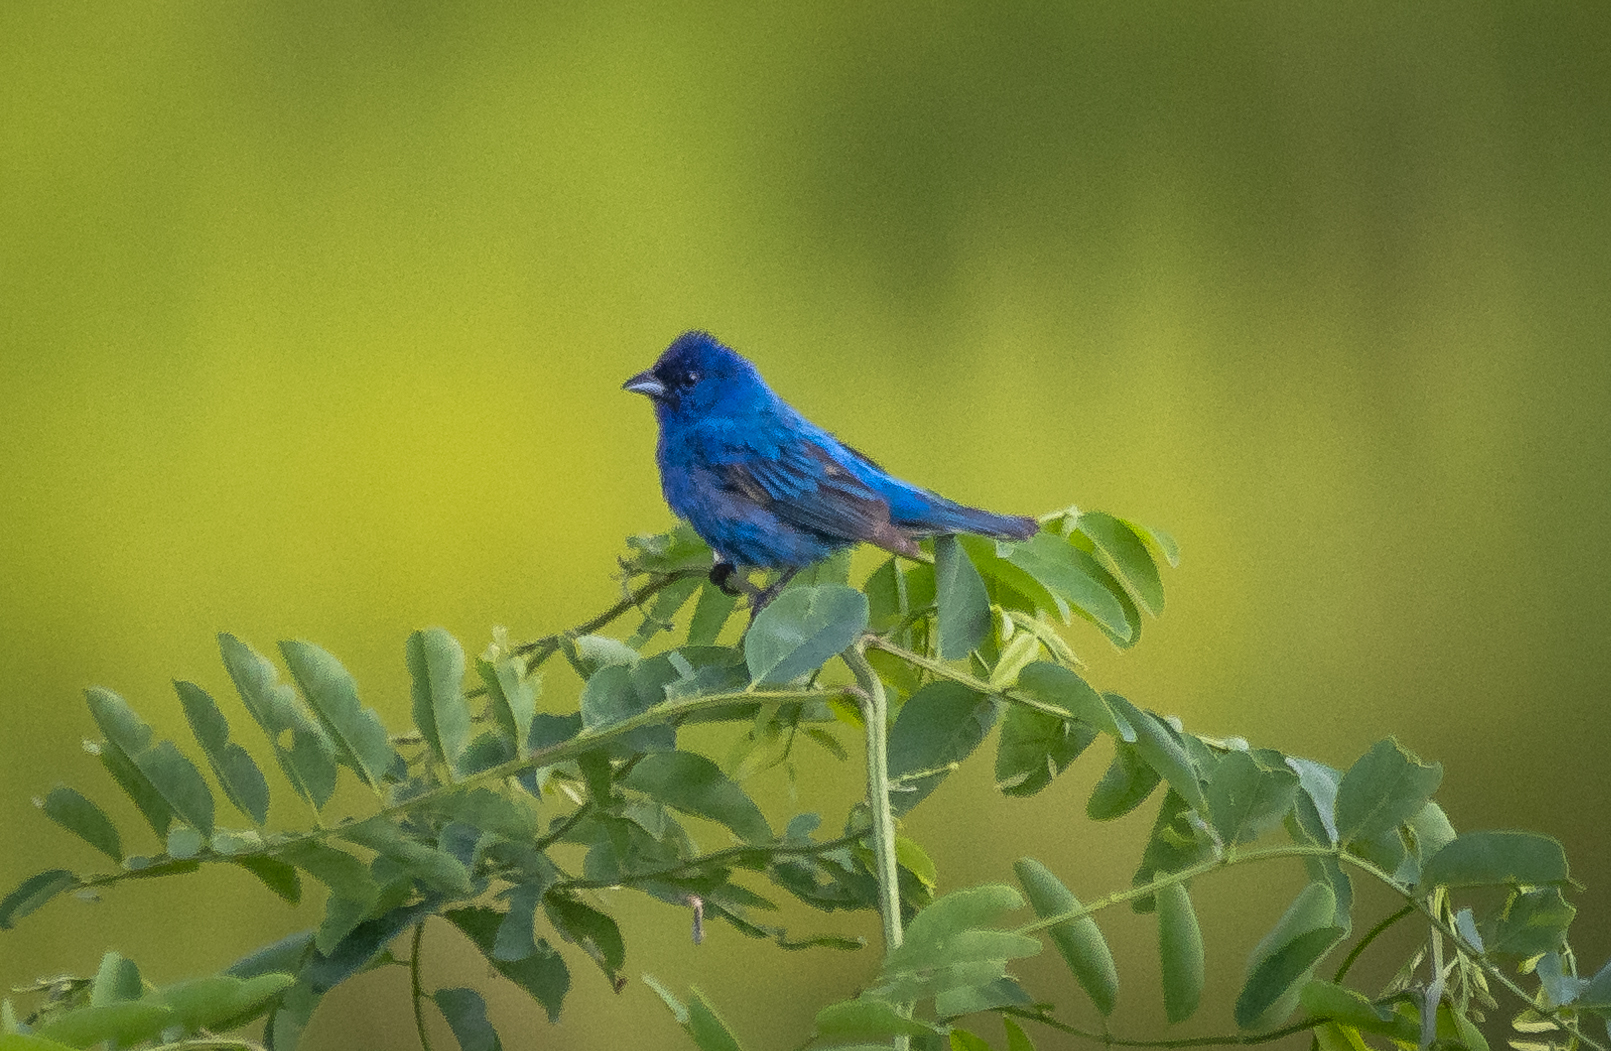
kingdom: Animalia
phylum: Chordata
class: Aves
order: Passeriformes
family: Cardinalidae
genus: Passerina
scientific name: Passerina cyanea
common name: Indigo bunting
